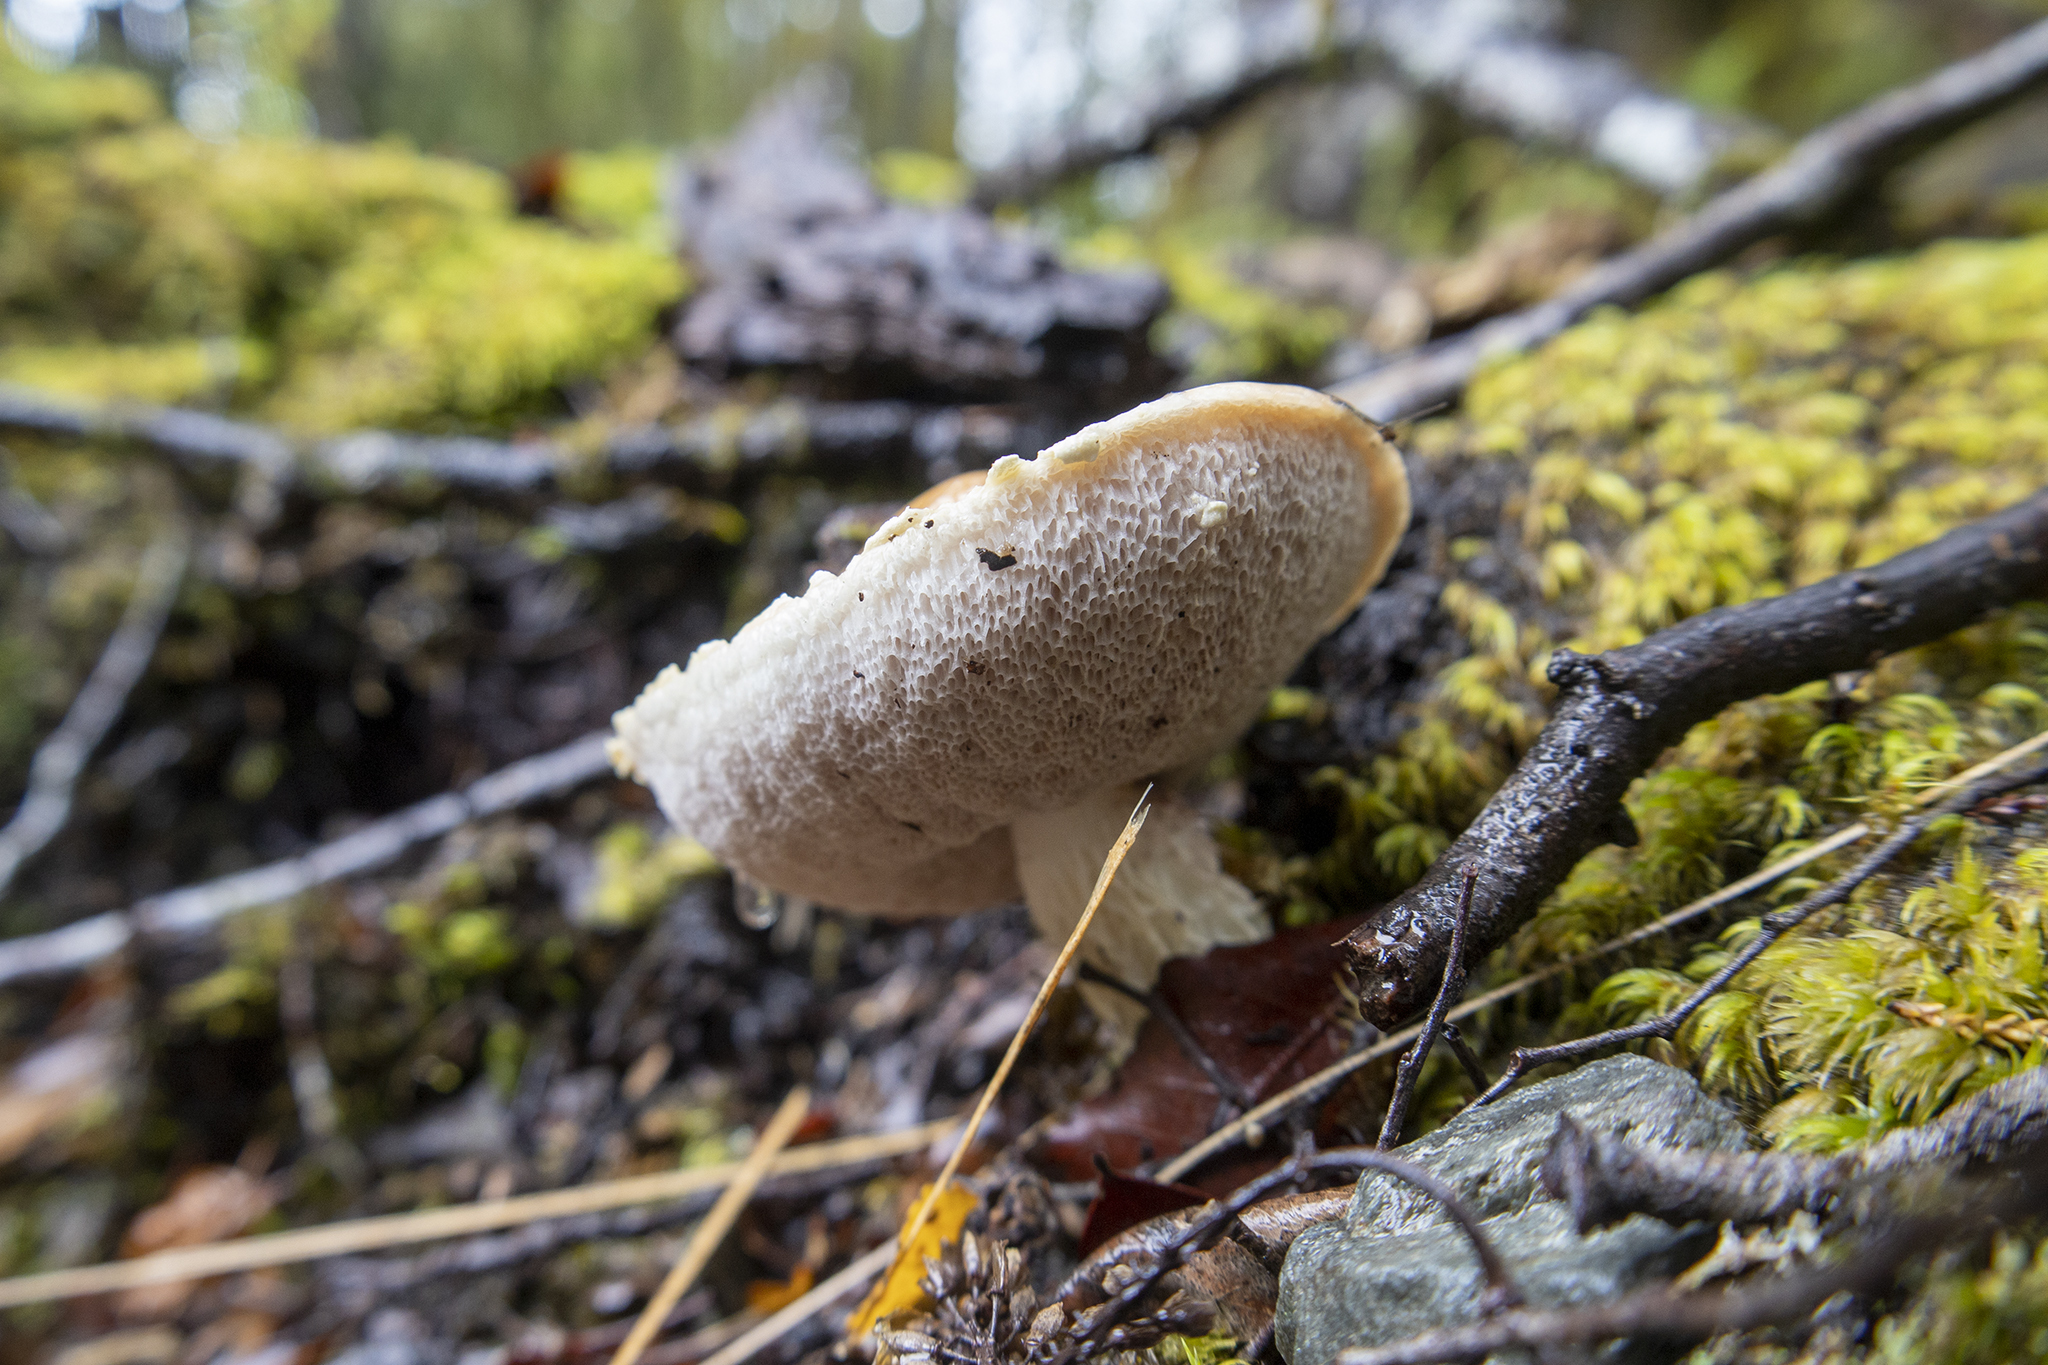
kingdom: Fungi
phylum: Basidiomycota
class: Agaricomycetes
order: Boletales
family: Boletaceae
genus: Austroboletus
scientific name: Austroboletus lacunosus
